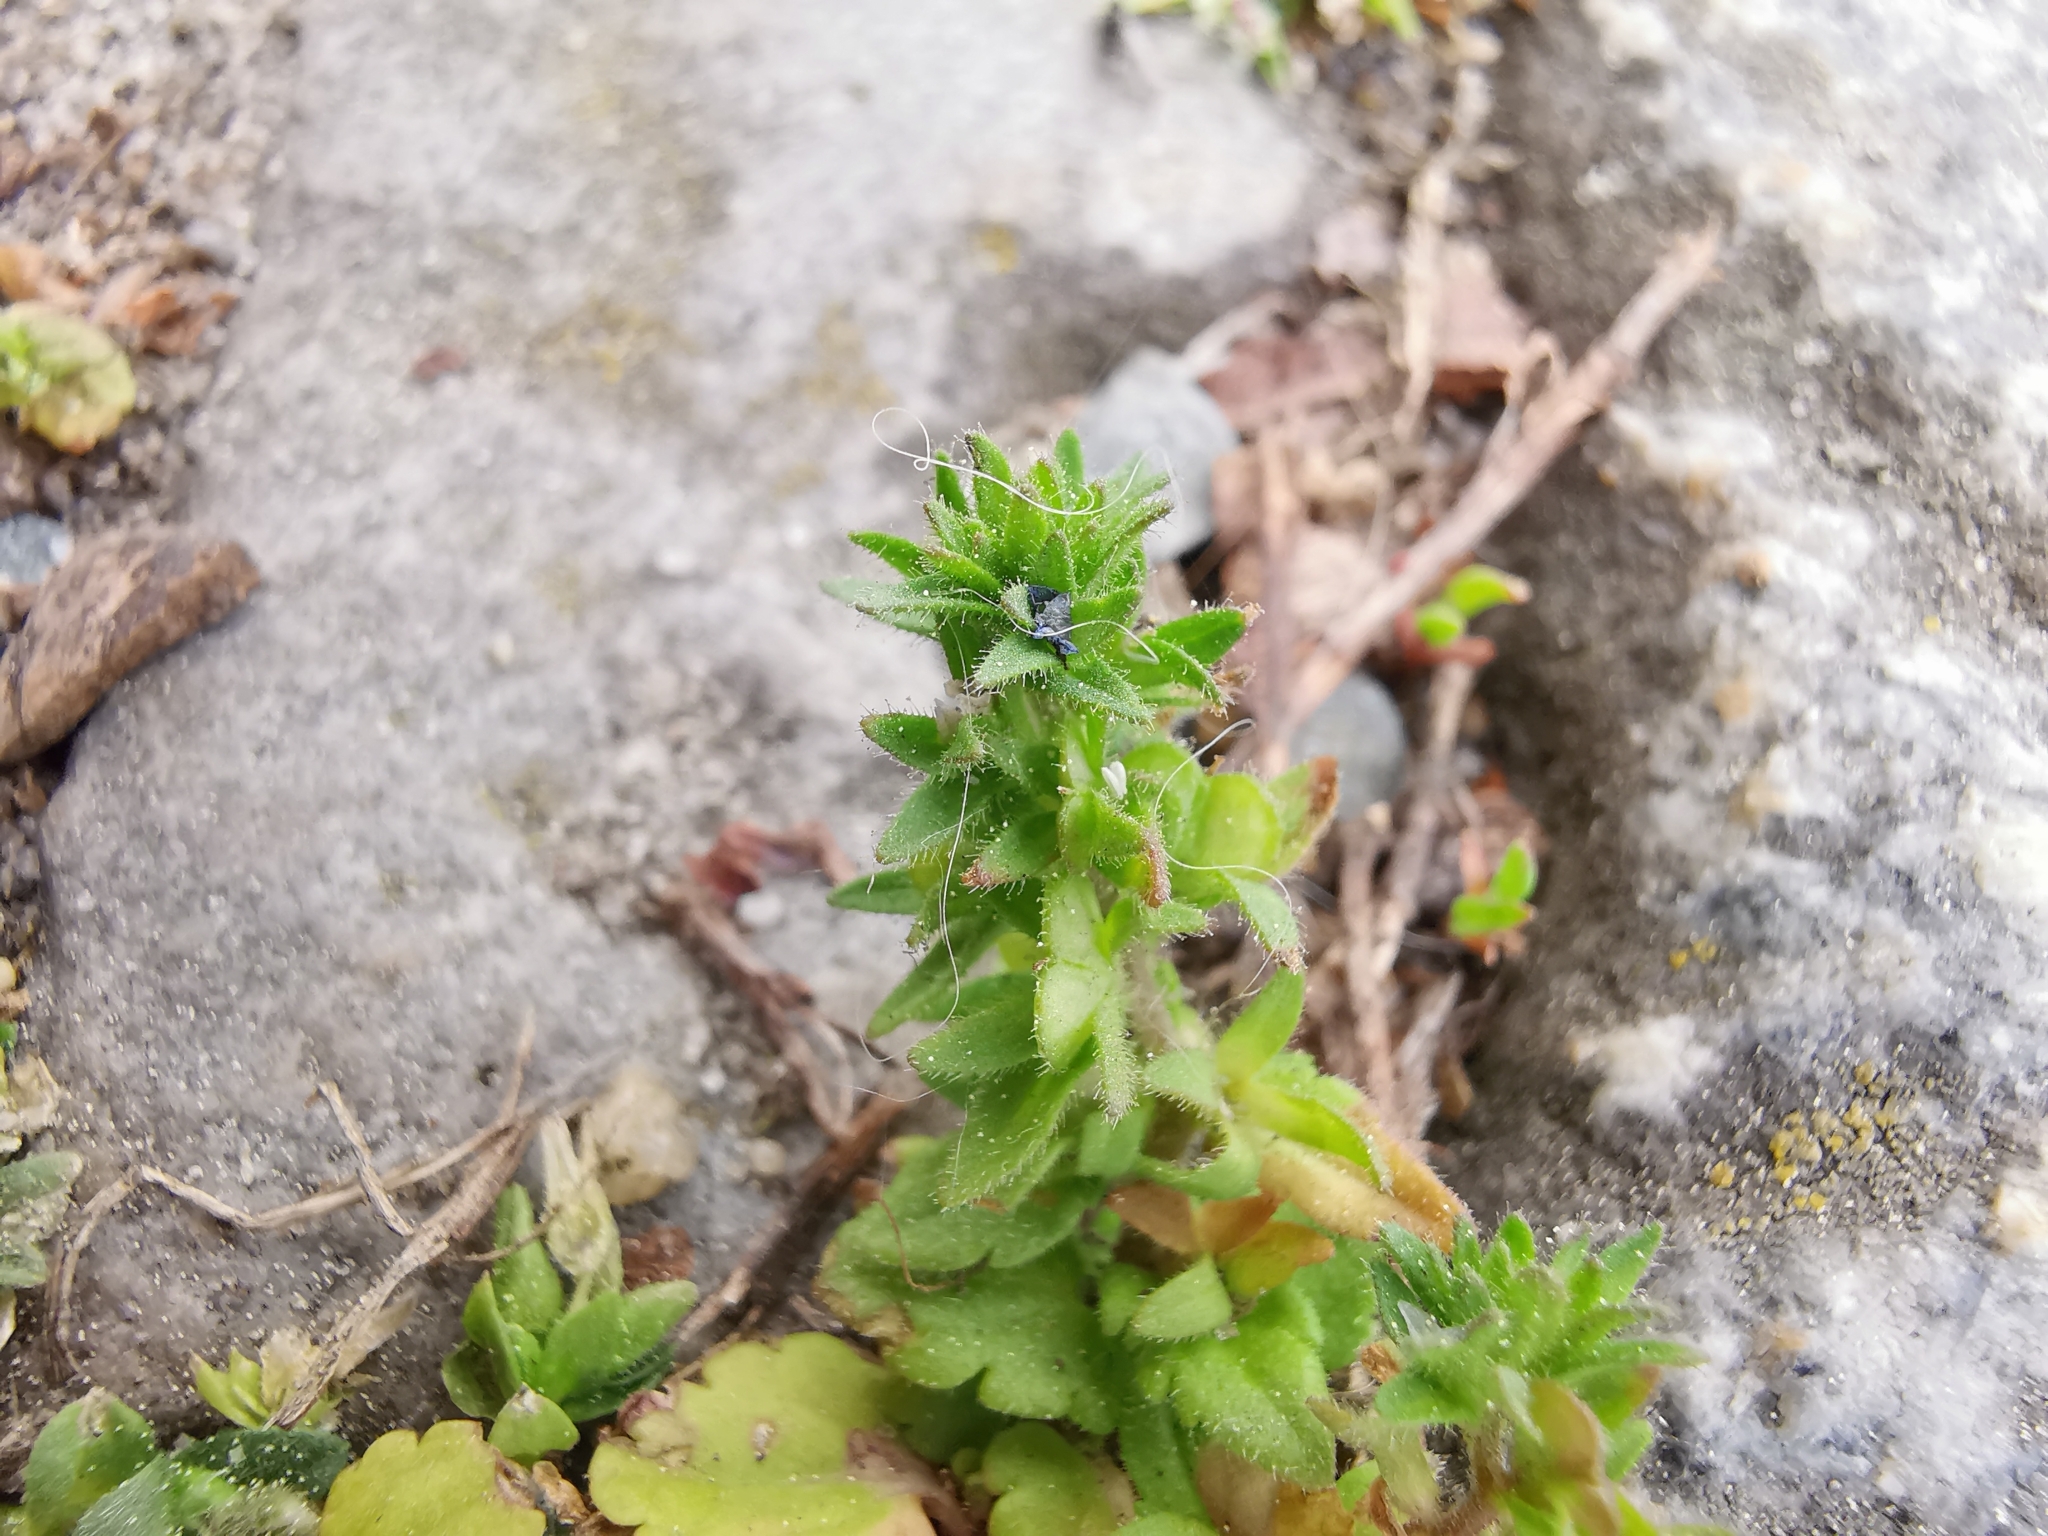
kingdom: Plantae
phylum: Tracheophyta
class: Magnoliopsida
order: Lamiales
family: Plantaginaceae
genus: Veronica
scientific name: Veronica arvensis
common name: Corn speedwell
